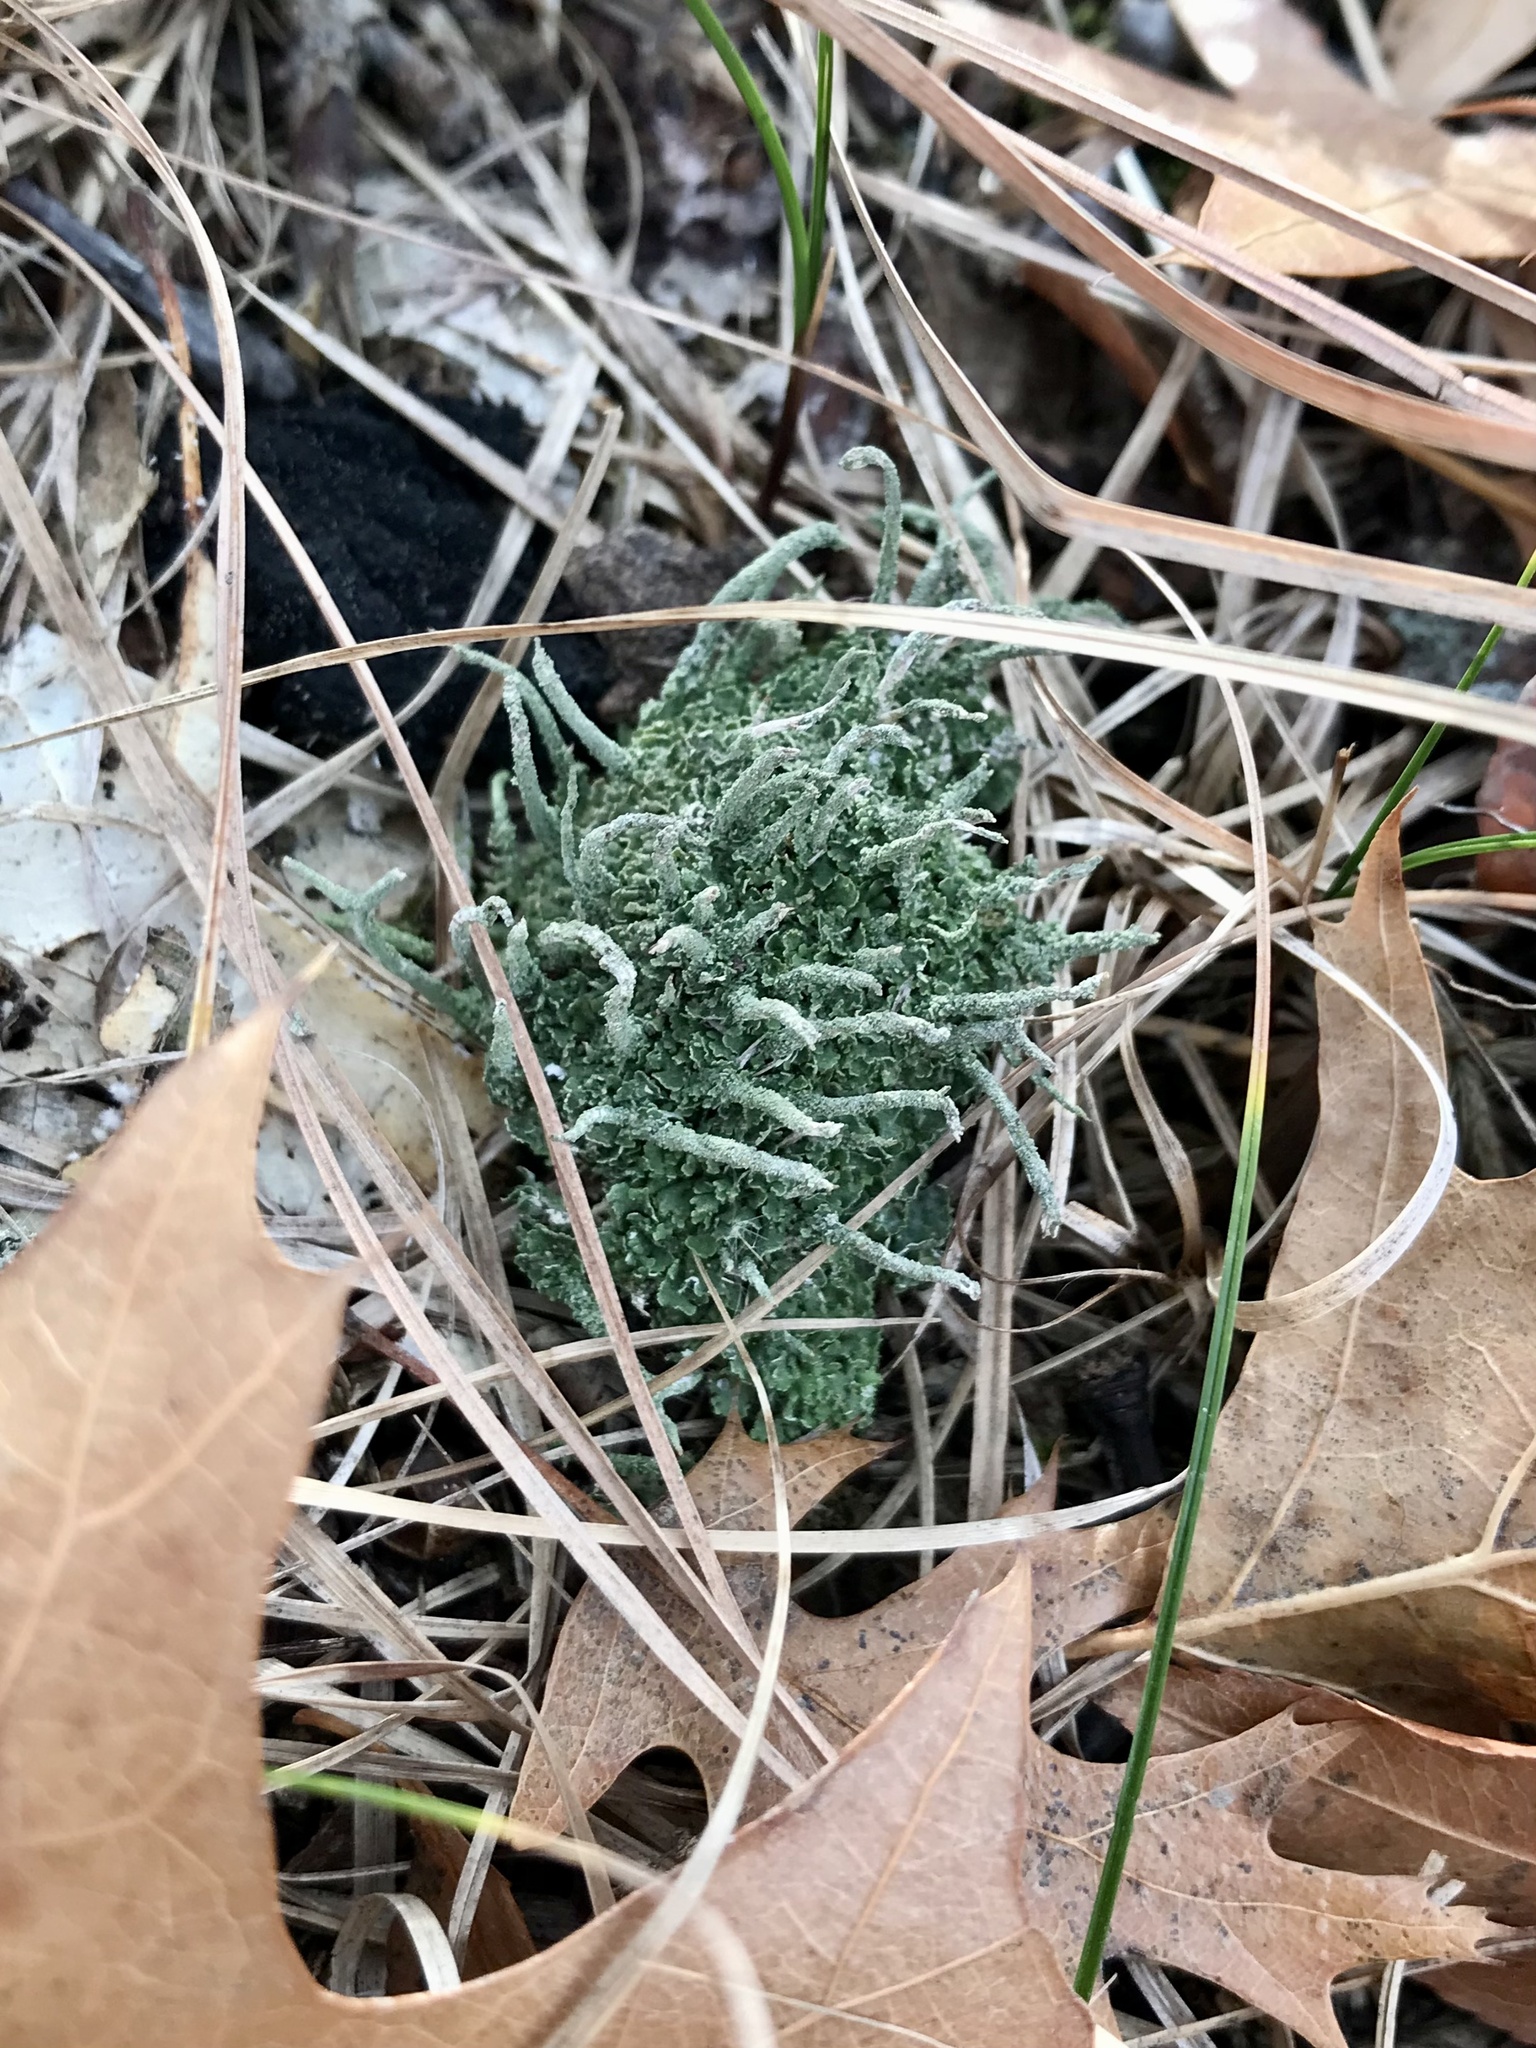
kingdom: Fungi
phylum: Ascomycota
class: Lecanoromycetes
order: Lecanorales
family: Cladoniaceae
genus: Cladonia
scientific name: Cladonia coniocraea
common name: Common powderhorn
